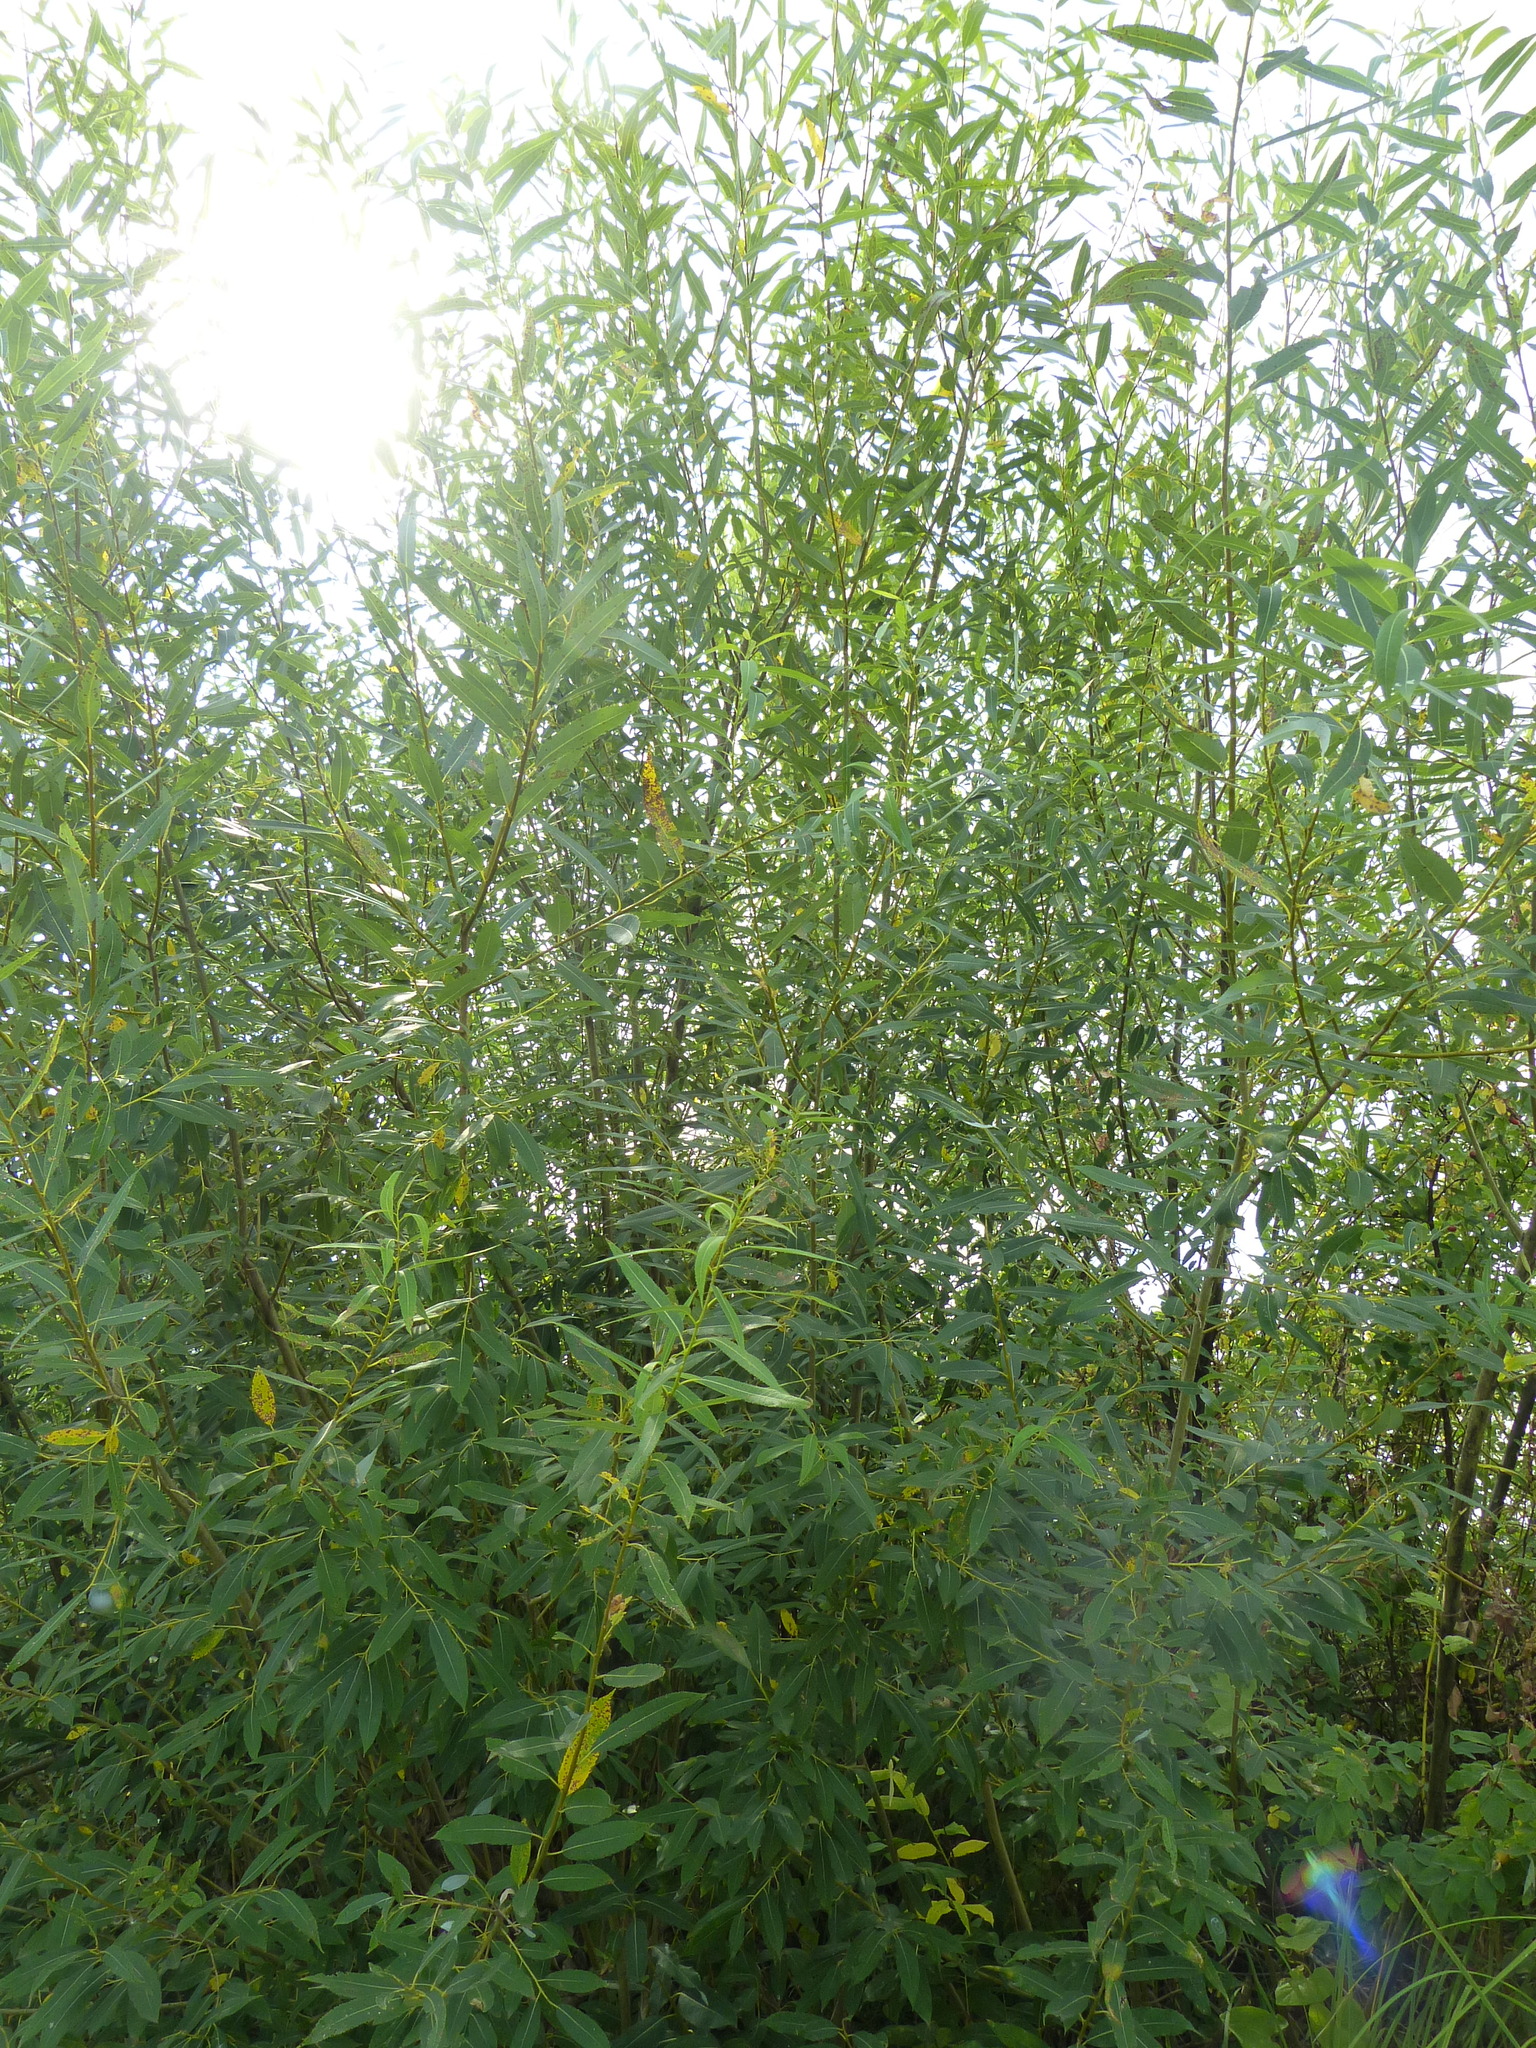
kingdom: Plantae
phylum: Tracheophyta
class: Magnoliopsida
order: Malpighiales
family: Salicaceae
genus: Salix
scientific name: Salix triandra
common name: Almond willow
